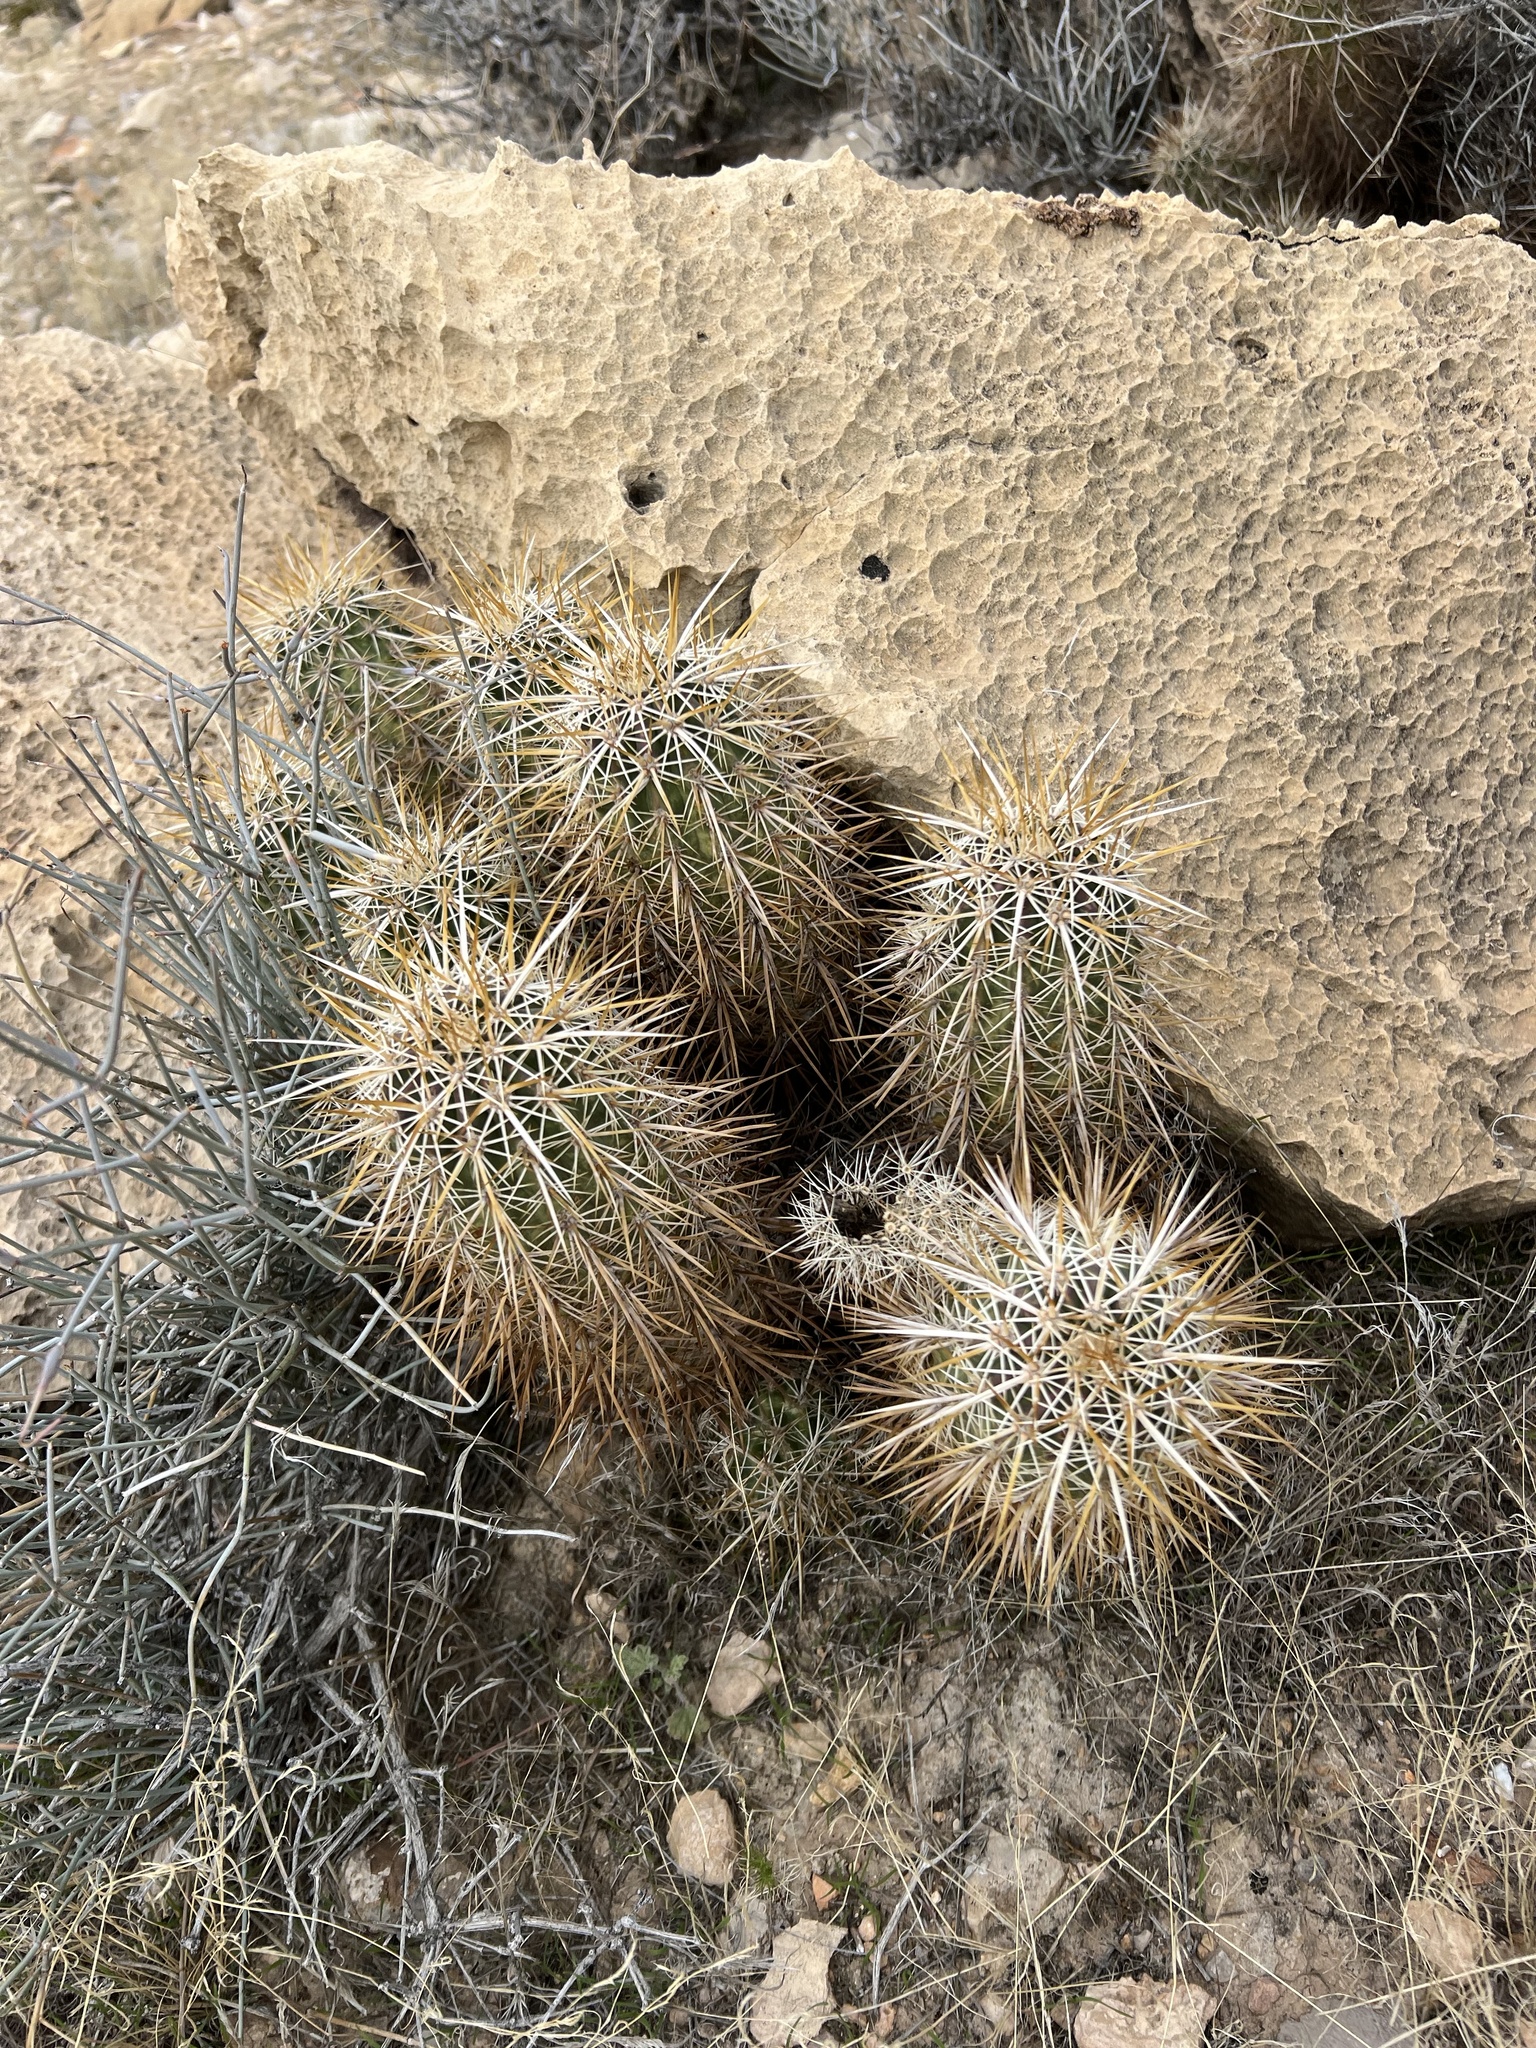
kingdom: Plantae
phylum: Tracheophyta
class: Magnoliopsida
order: Caryophyllales
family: Cactaceae
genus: Echinocereus
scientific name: Echinocereus engelmannii
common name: Engelmann's hedgehog cactus
